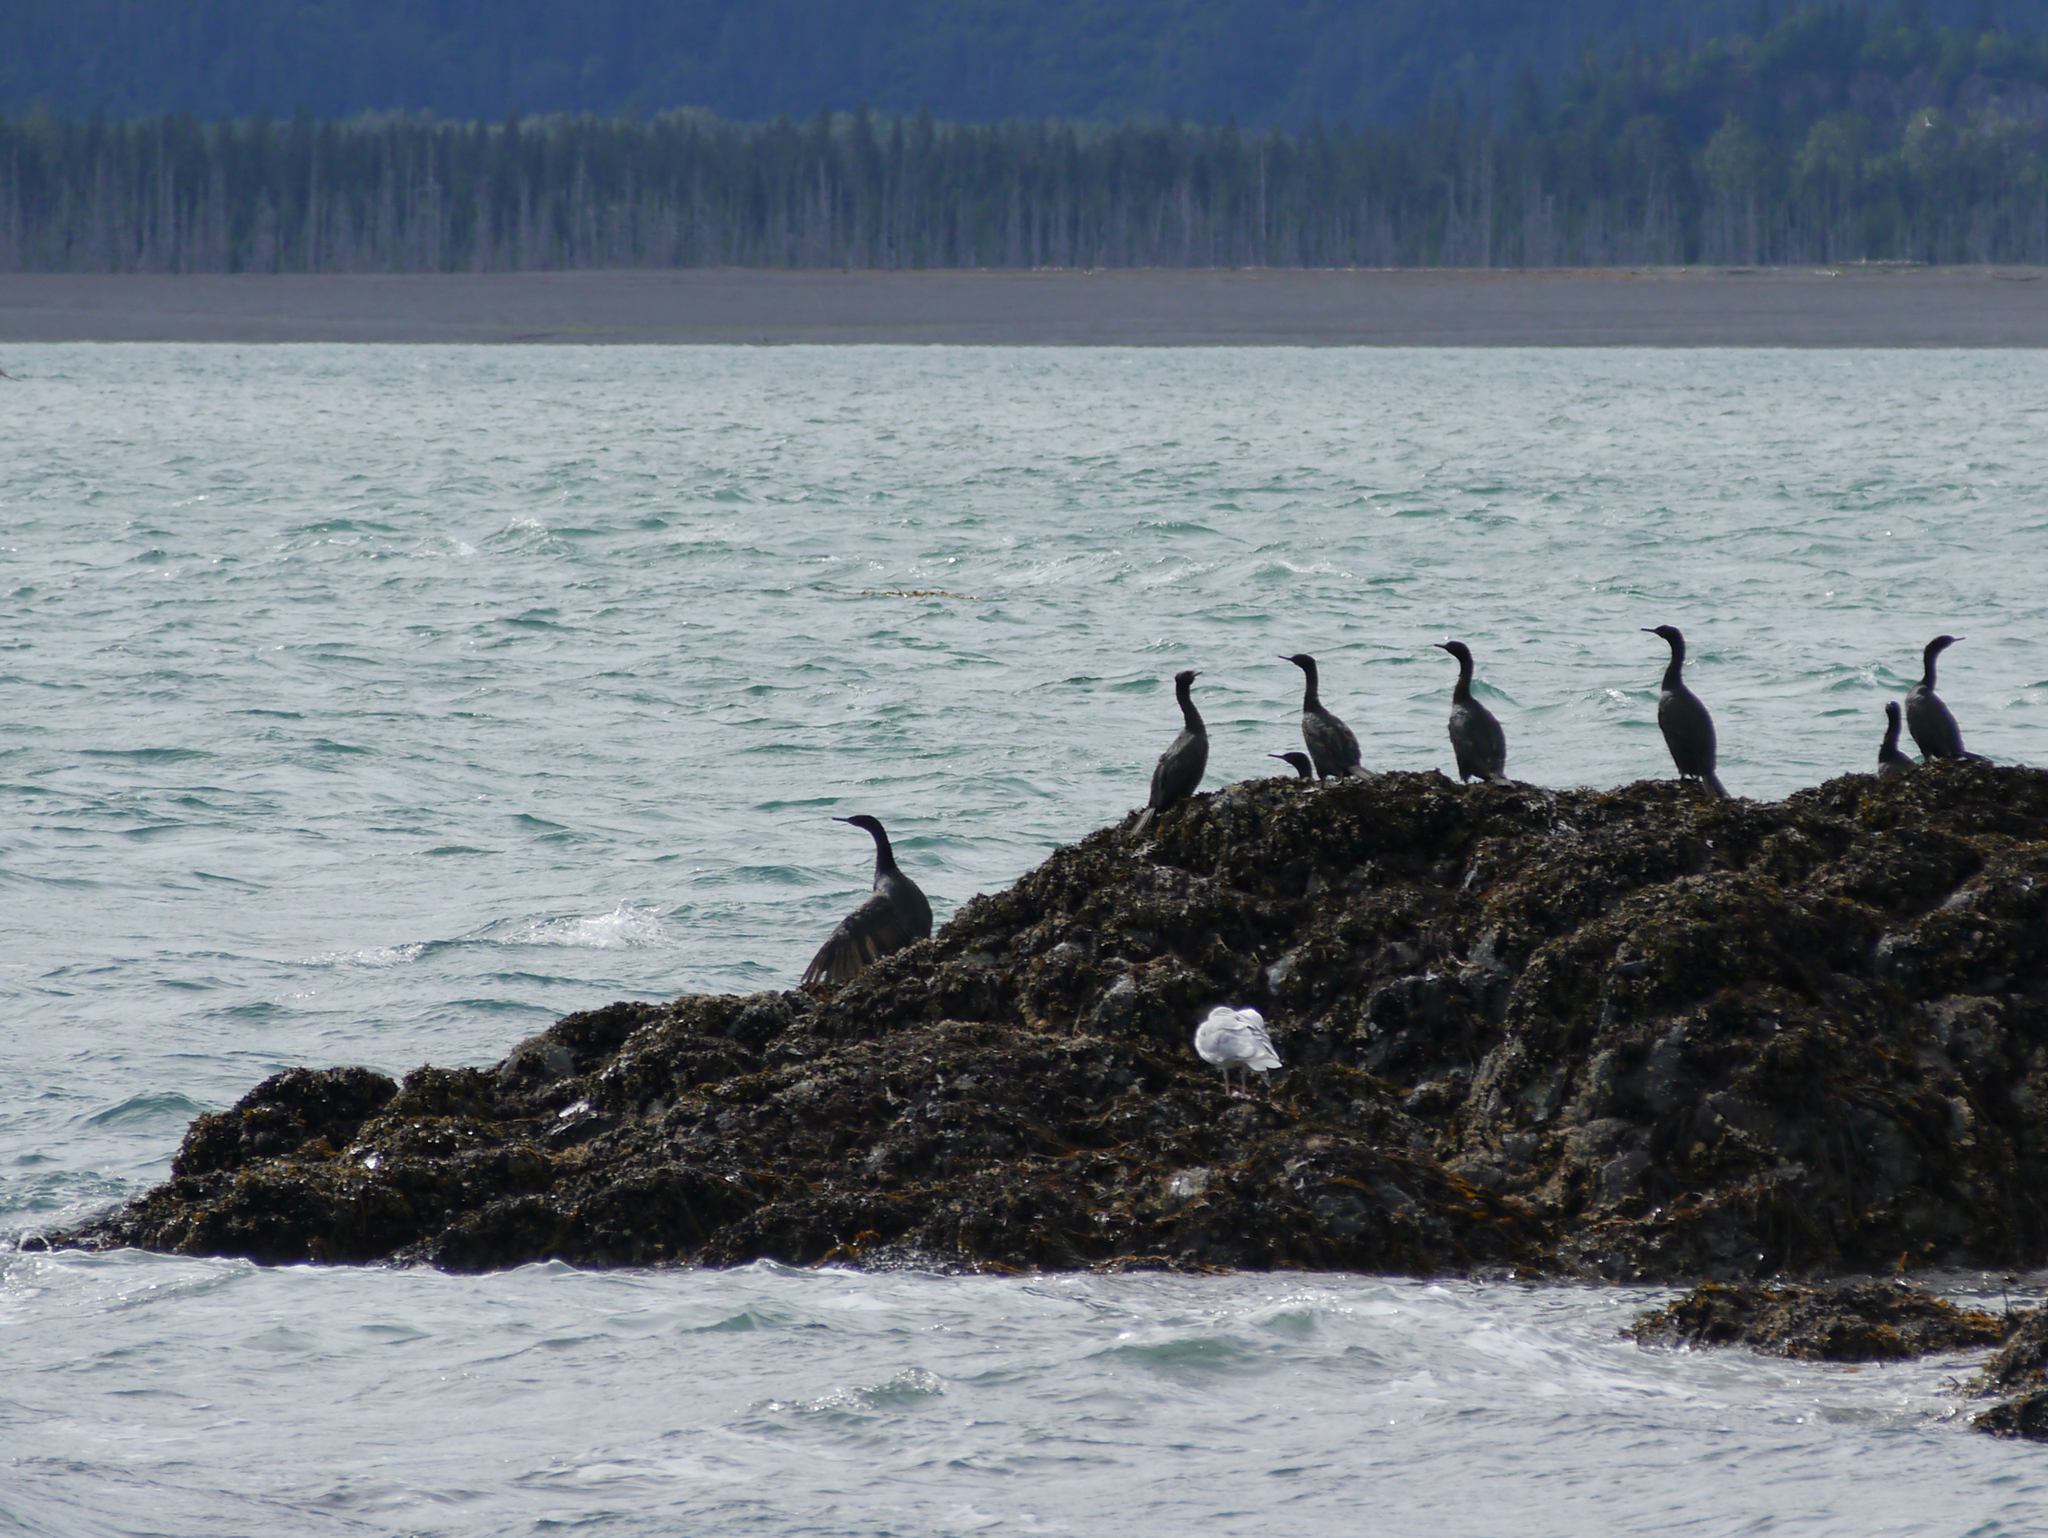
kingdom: Animalia
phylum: Chordata
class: Aves
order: Suliformes
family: Phalacrocoracidae
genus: Phalacrocorax
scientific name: Phalacrocorax pelagicus
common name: Pelagic cormorant
